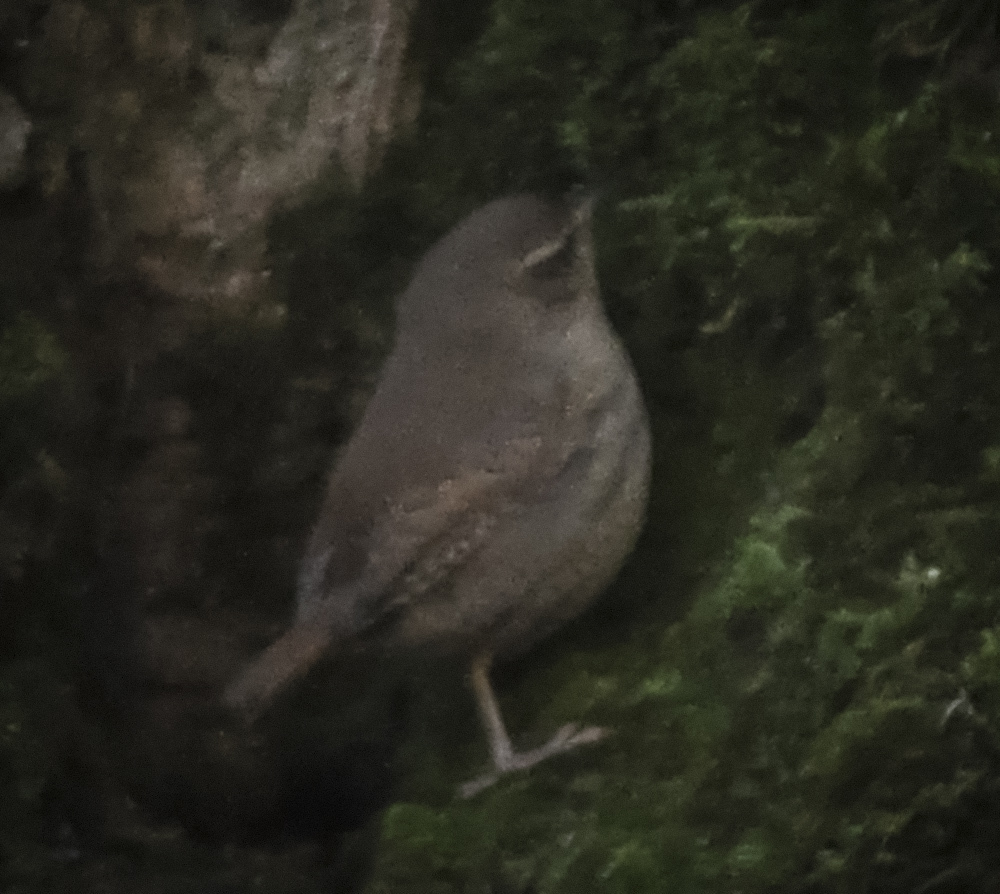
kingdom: Animalia
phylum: Chordata
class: Aves
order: Passeriformes
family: Troglodytidae
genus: Troglodytes
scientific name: Troglodytes troglodytes
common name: Eurasian wren
